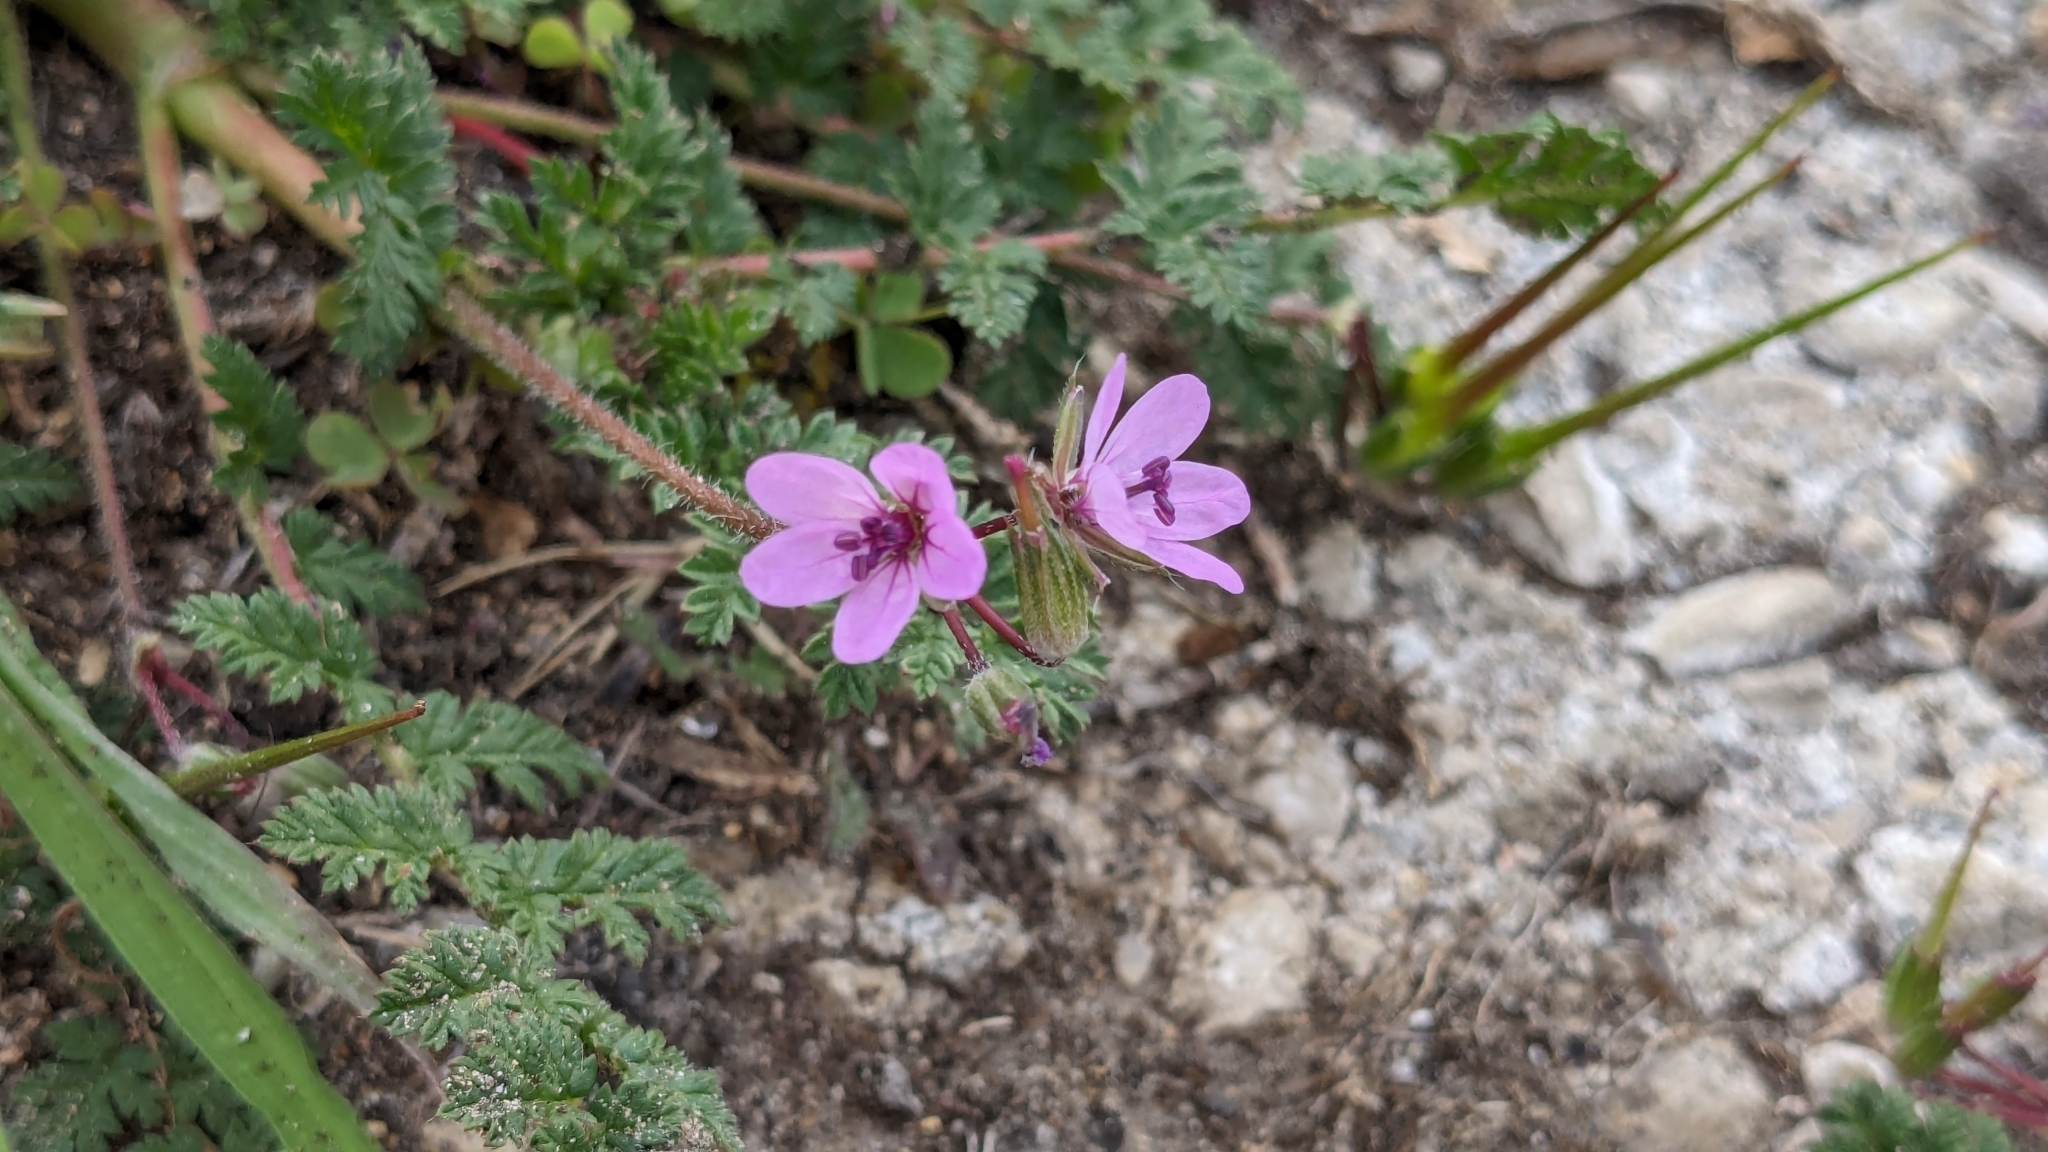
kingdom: Plantae
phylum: Tracheophyta
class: Magnoliopsida
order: Geraniales
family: Geraniaceae
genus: Erodium
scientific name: Erodium cicutarium
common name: Common stork's-bill
